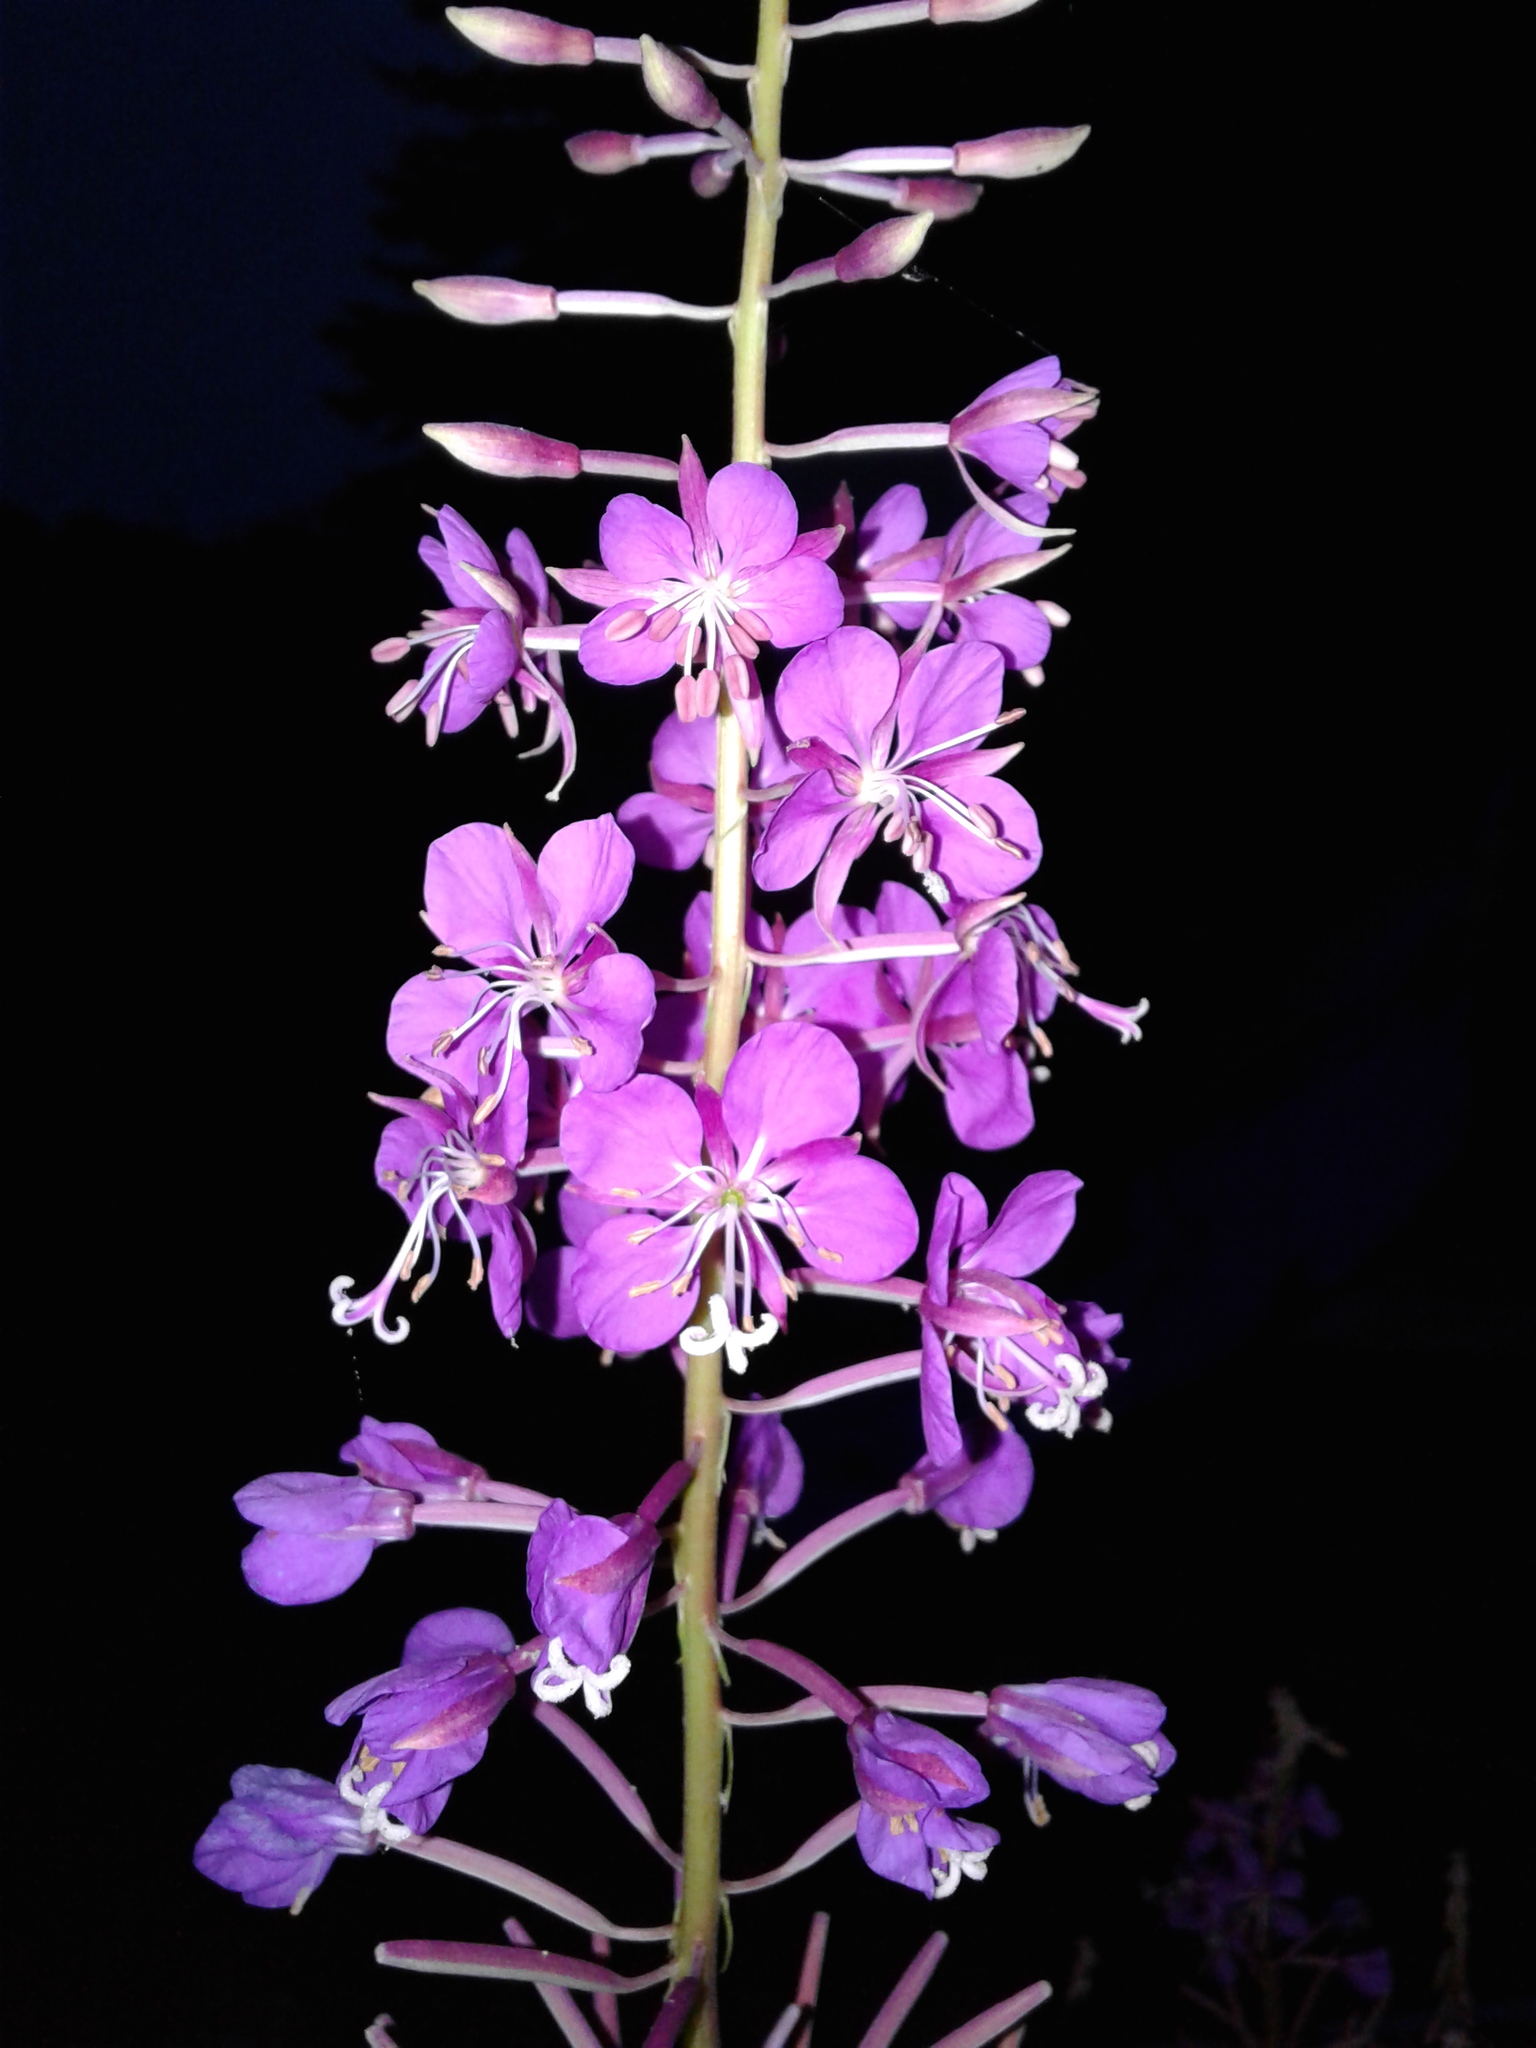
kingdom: Plantae
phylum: Tracheophyta
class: Magnoliopsida
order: Myrtales
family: Onagraceae
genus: Chamaenerion
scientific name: Chamaenerion angustifolium
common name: Fireweed
